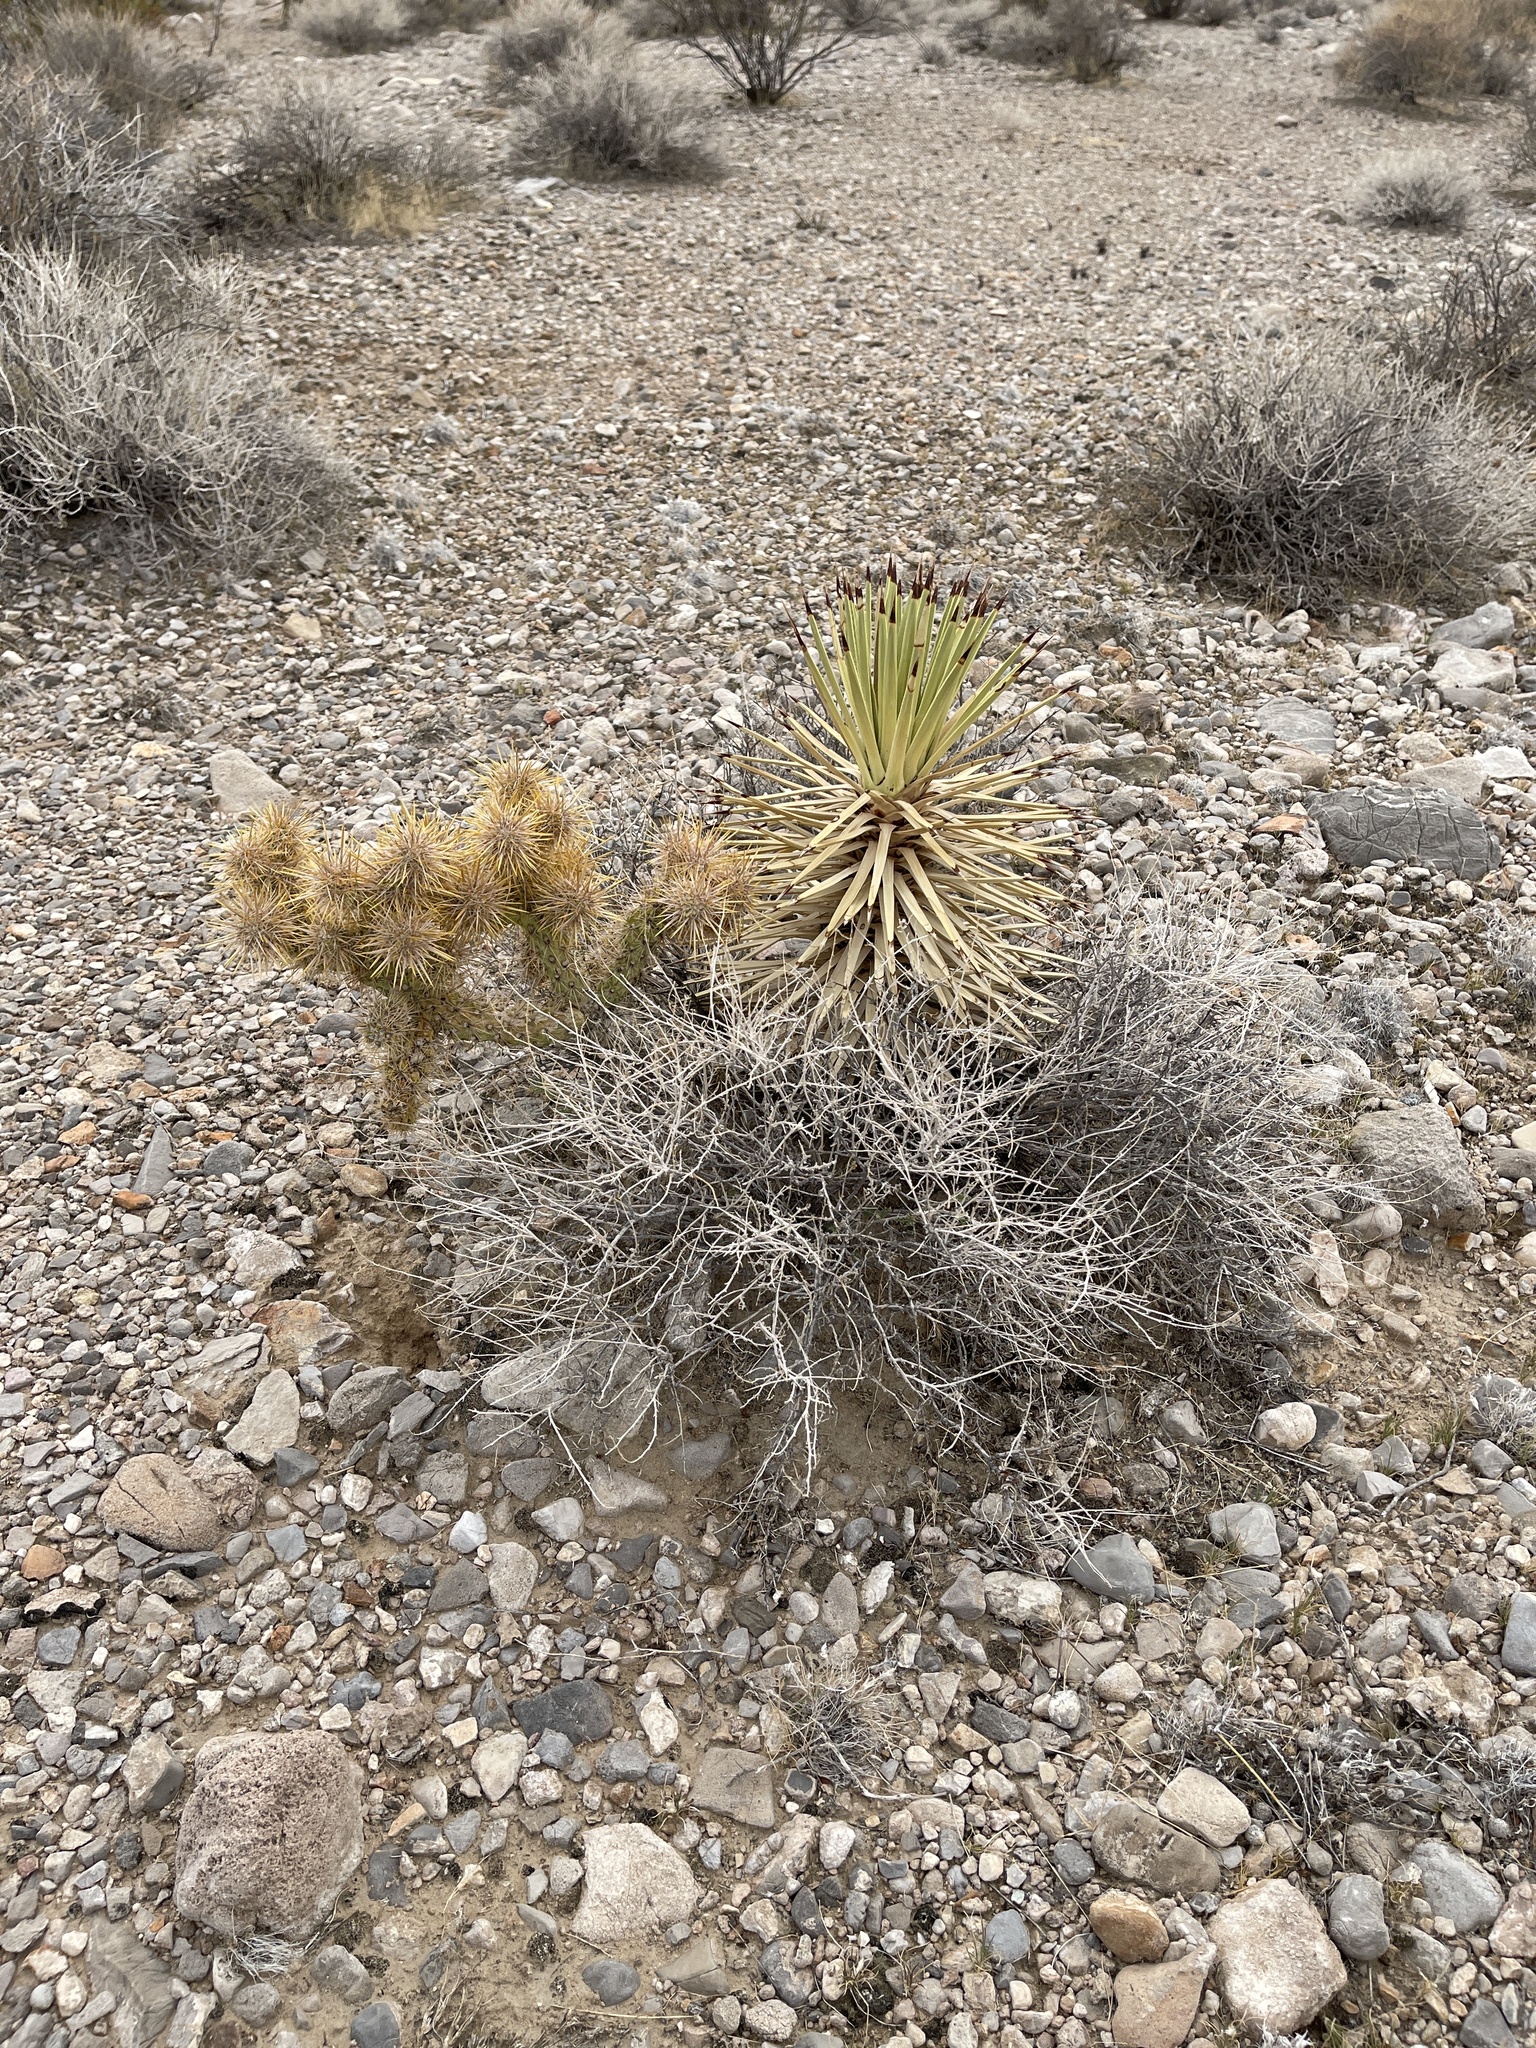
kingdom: Plantae
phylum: Tracheophyta
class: Magnoliopsida
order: Caryophyllales
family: Cactaceae
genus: Cylindropuntia
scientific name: Cylindropuntia echinocarpa
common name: Ground cholla
